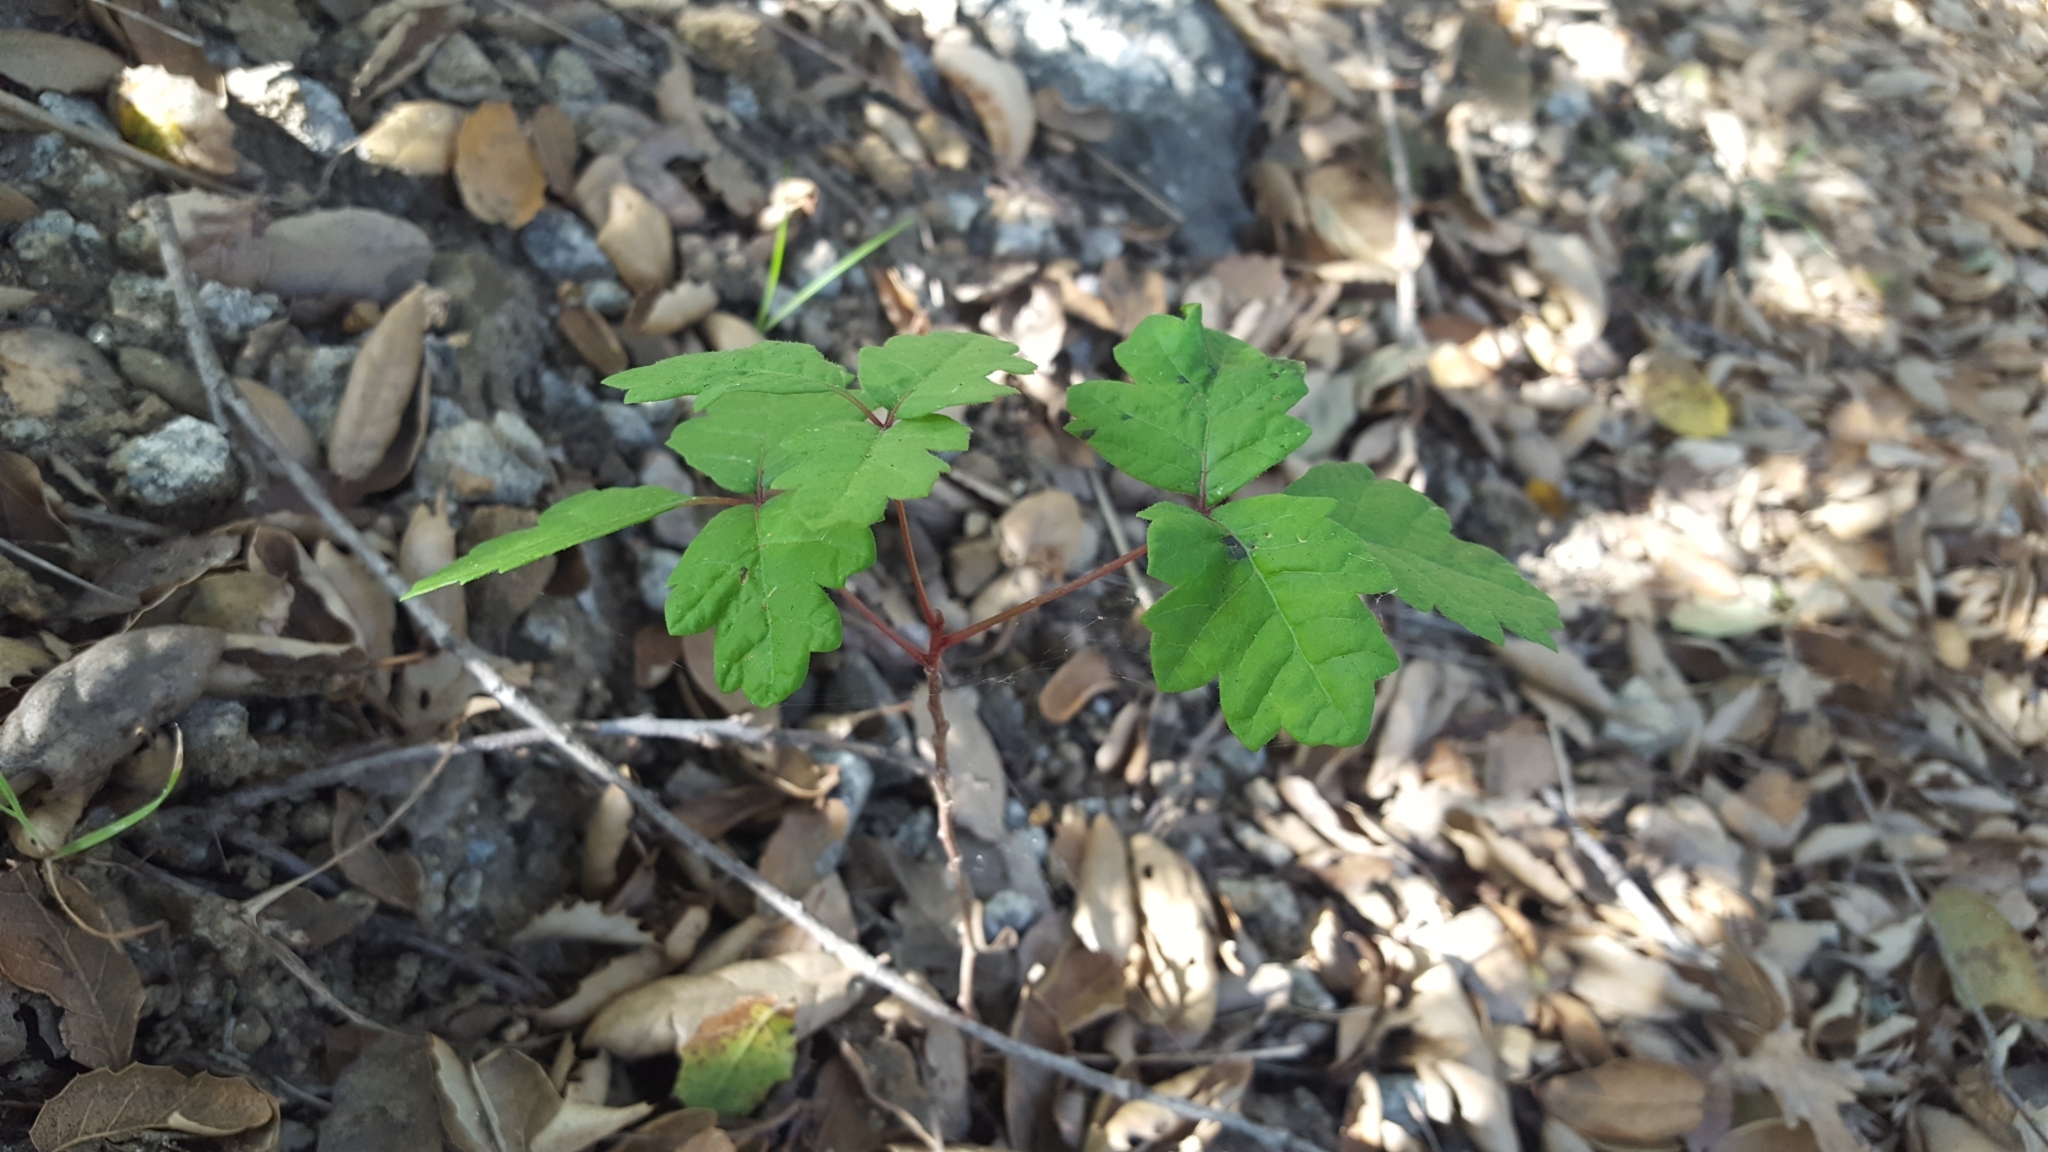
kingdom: Plantae
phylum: Tracheophyta
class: Magnoliopsida
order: Sapindales
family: Anacardiaceae
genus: Toxicodendron
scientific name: Toxicodendron diversilobum
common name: Pacific poison-oak
